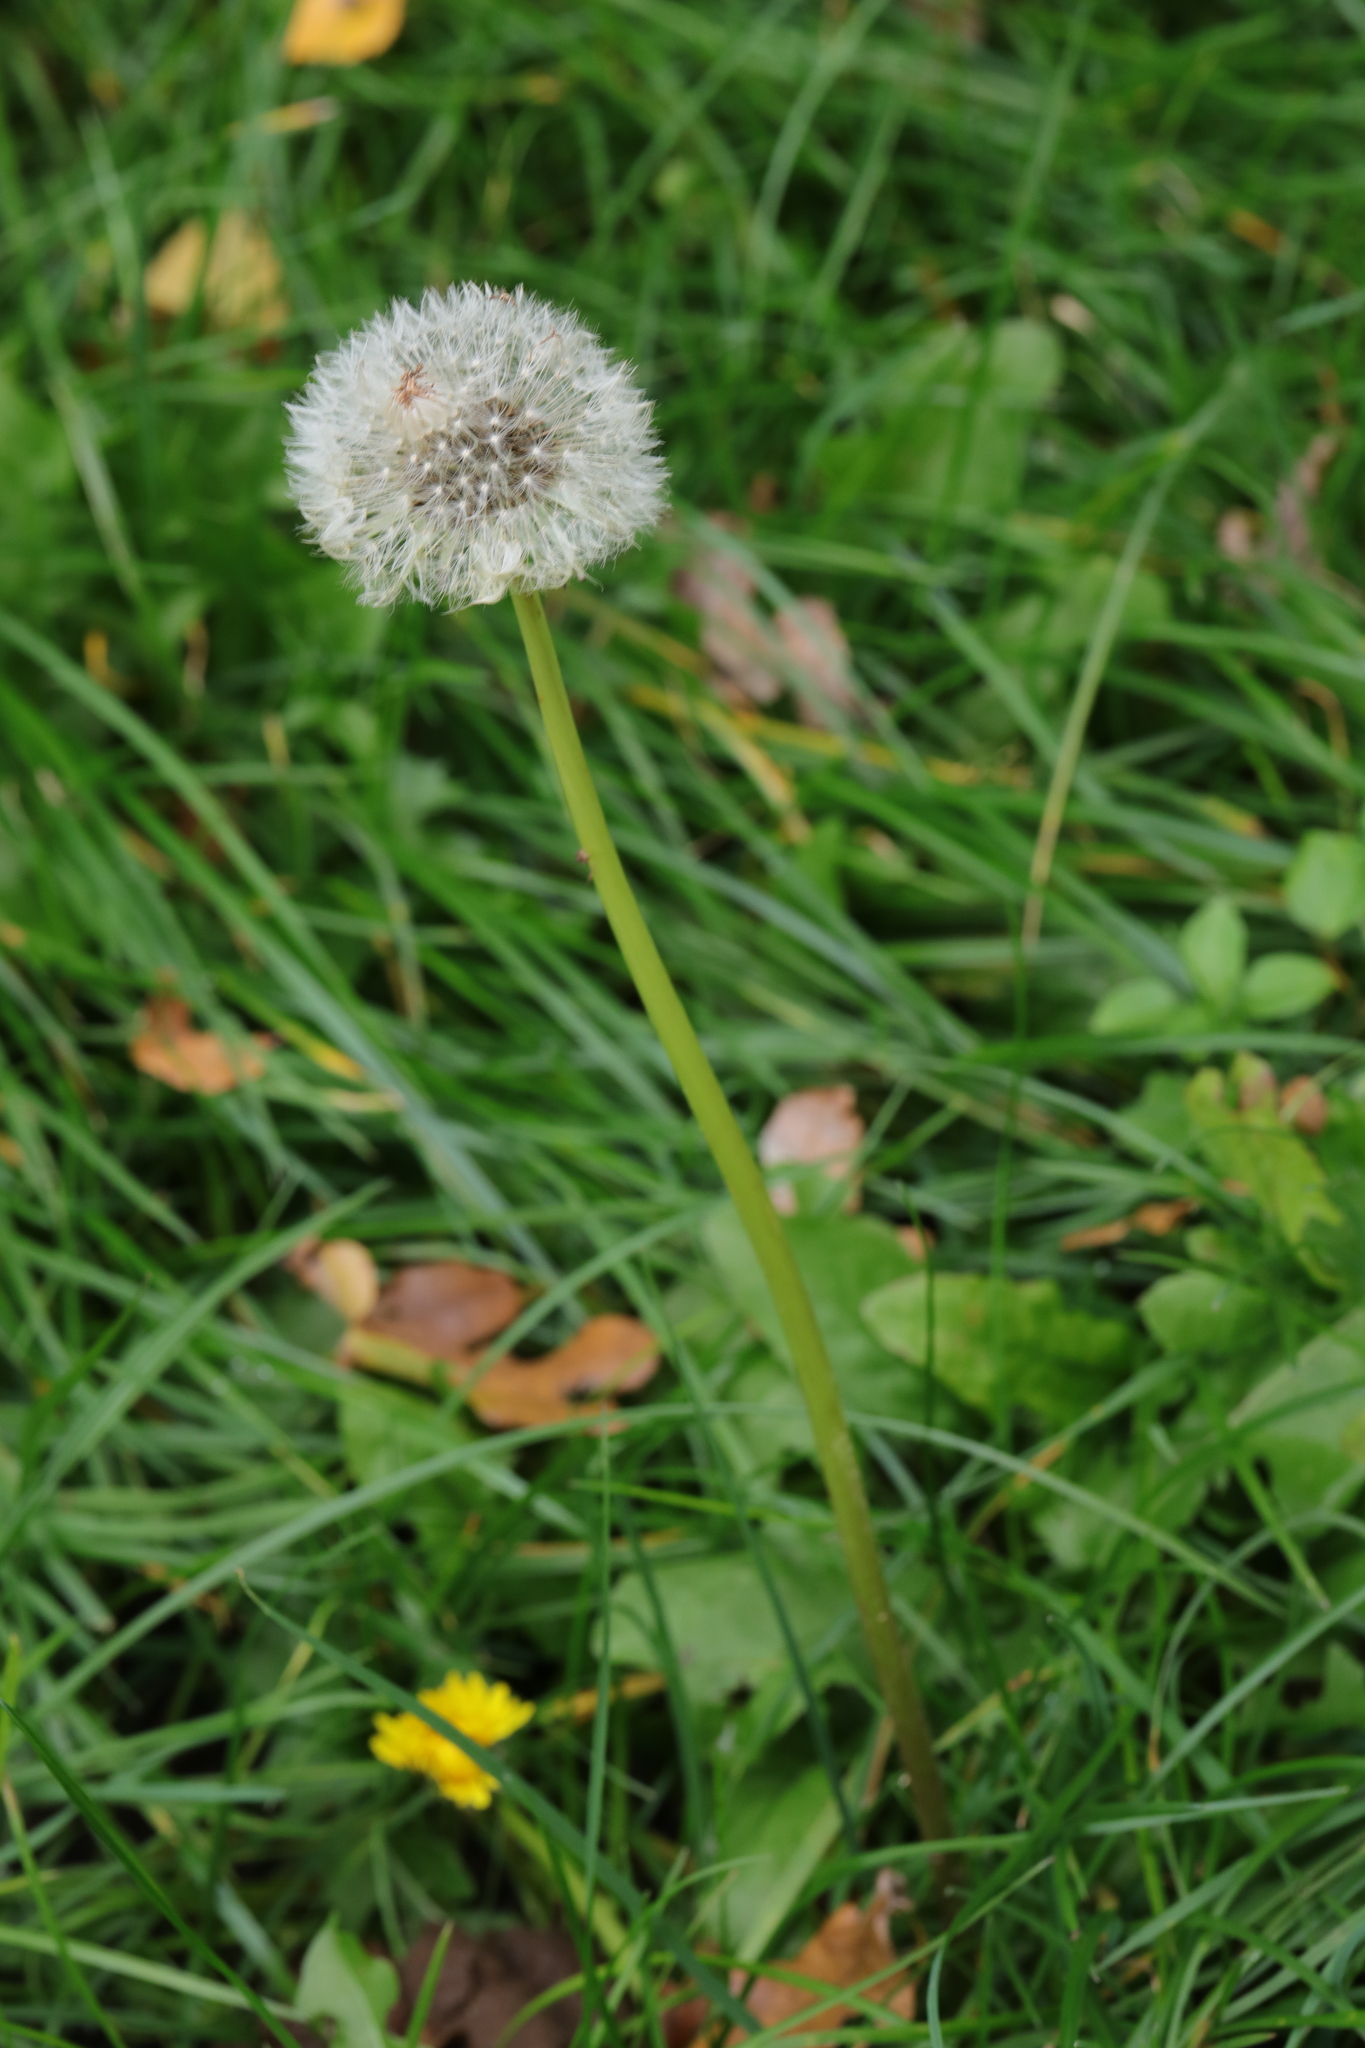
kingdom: Plantae
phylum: Tracheophyta
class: Magnoliopsida
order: Asterales
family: Asteraceae
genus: Taraxacum
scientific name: Taraxacum officinale
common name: Common dandelion
